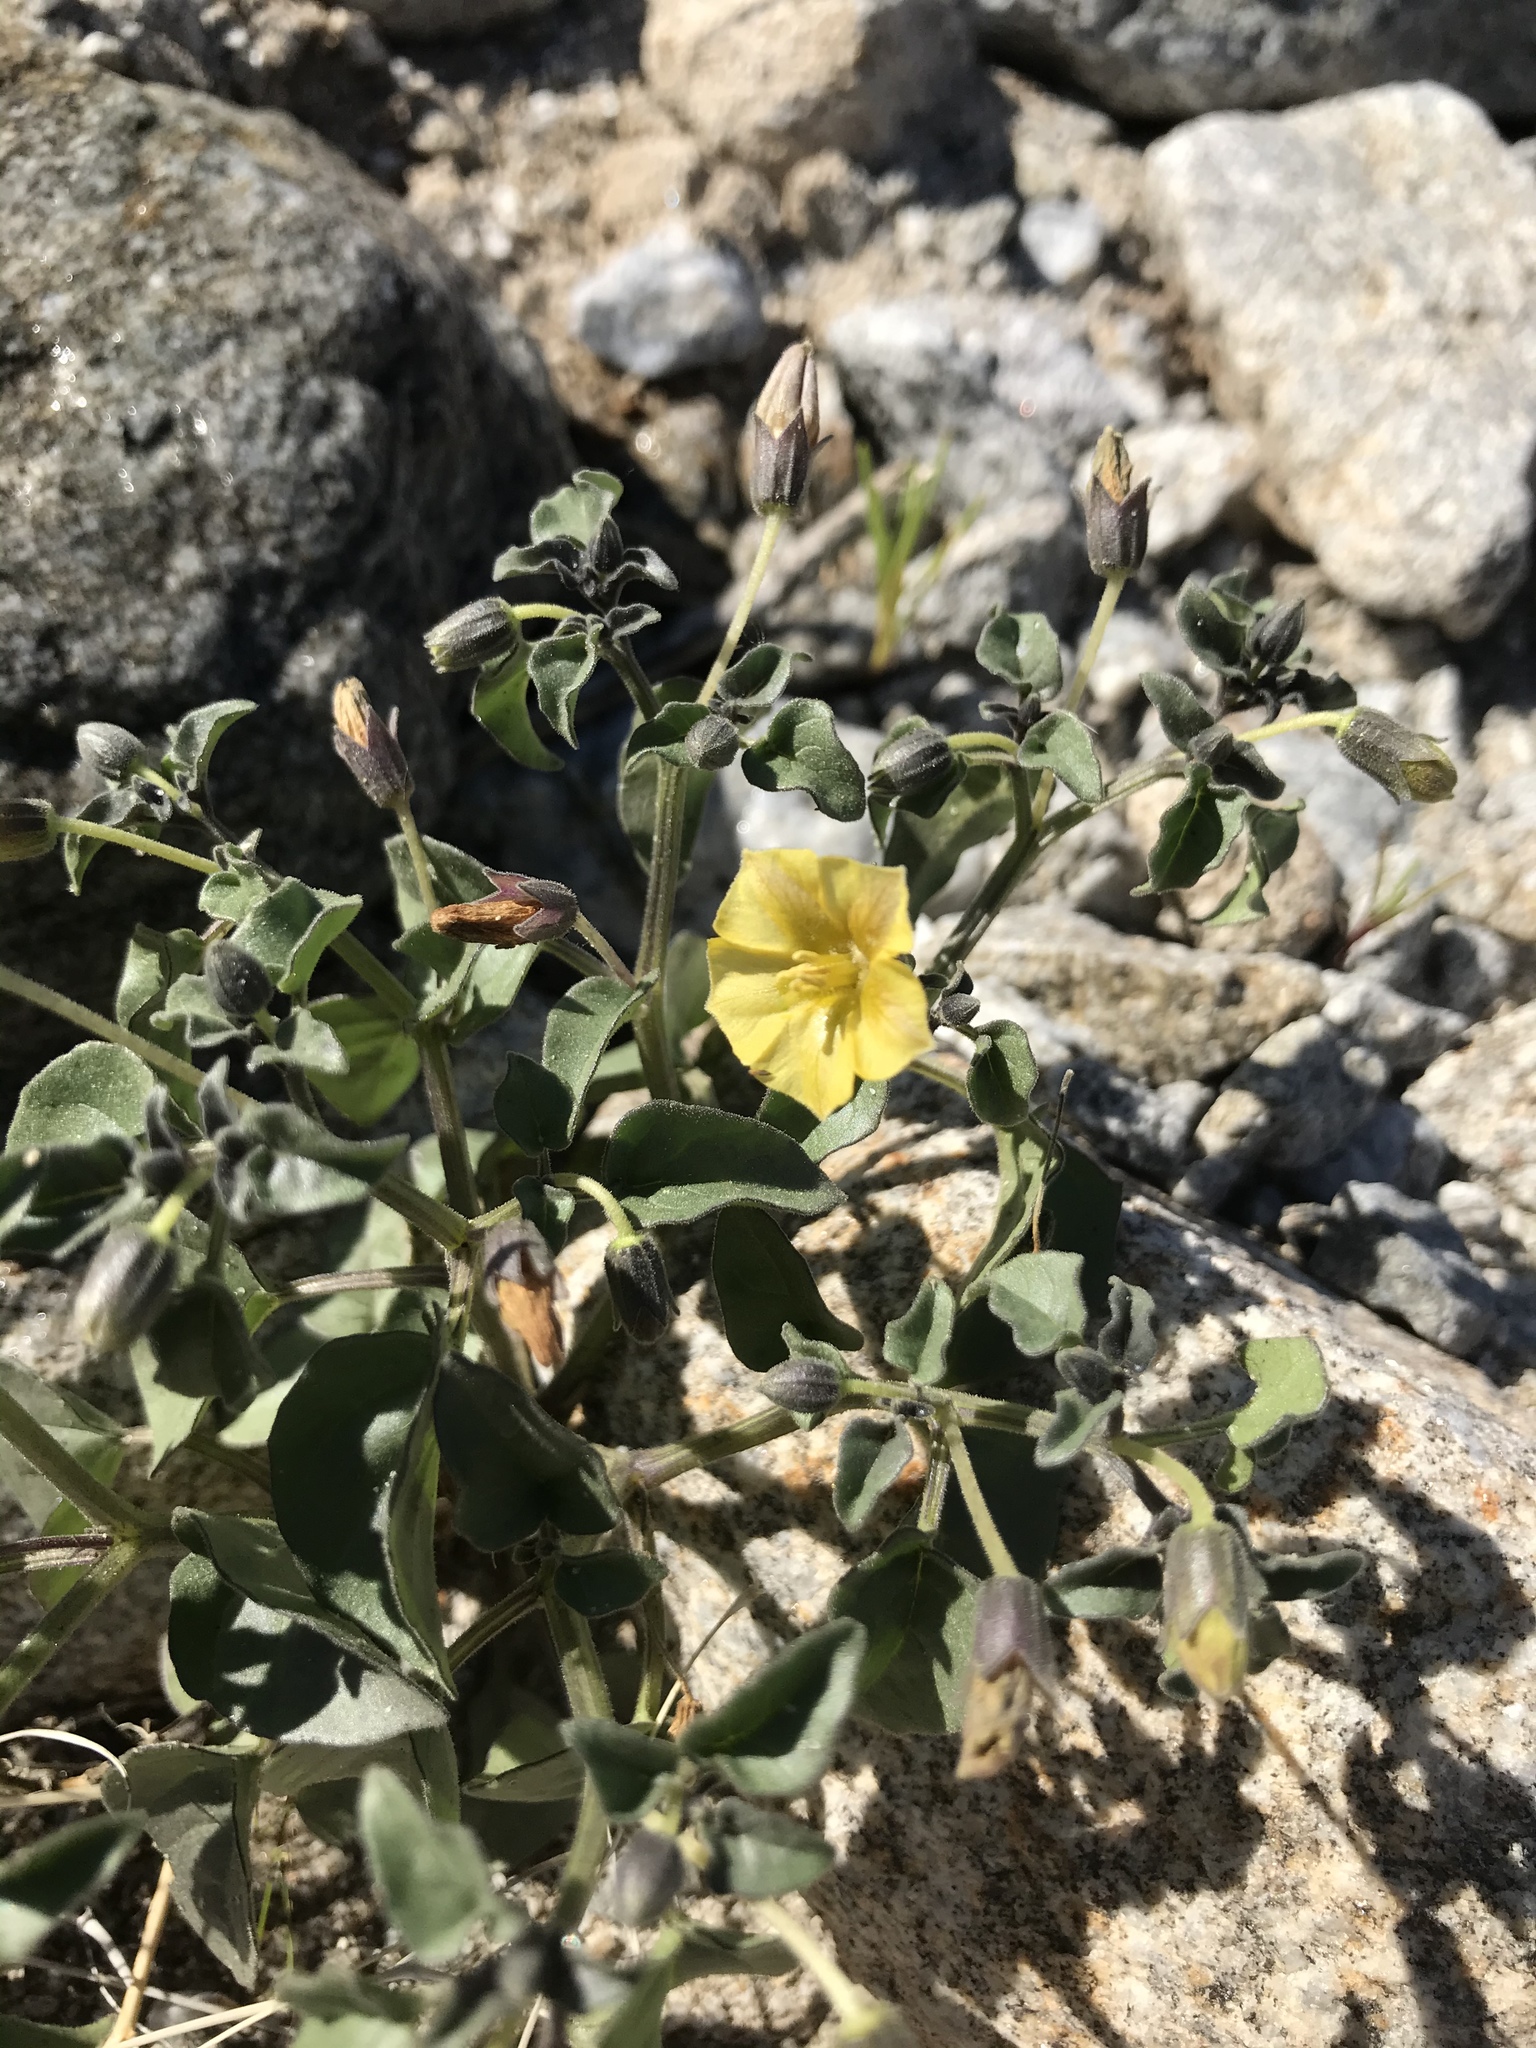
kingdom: Plantae
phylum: Tracheophyta
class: Magnoliopsida
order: Solanales
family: Solanaceae
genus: Physalis
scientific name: Physalis crassifolia
